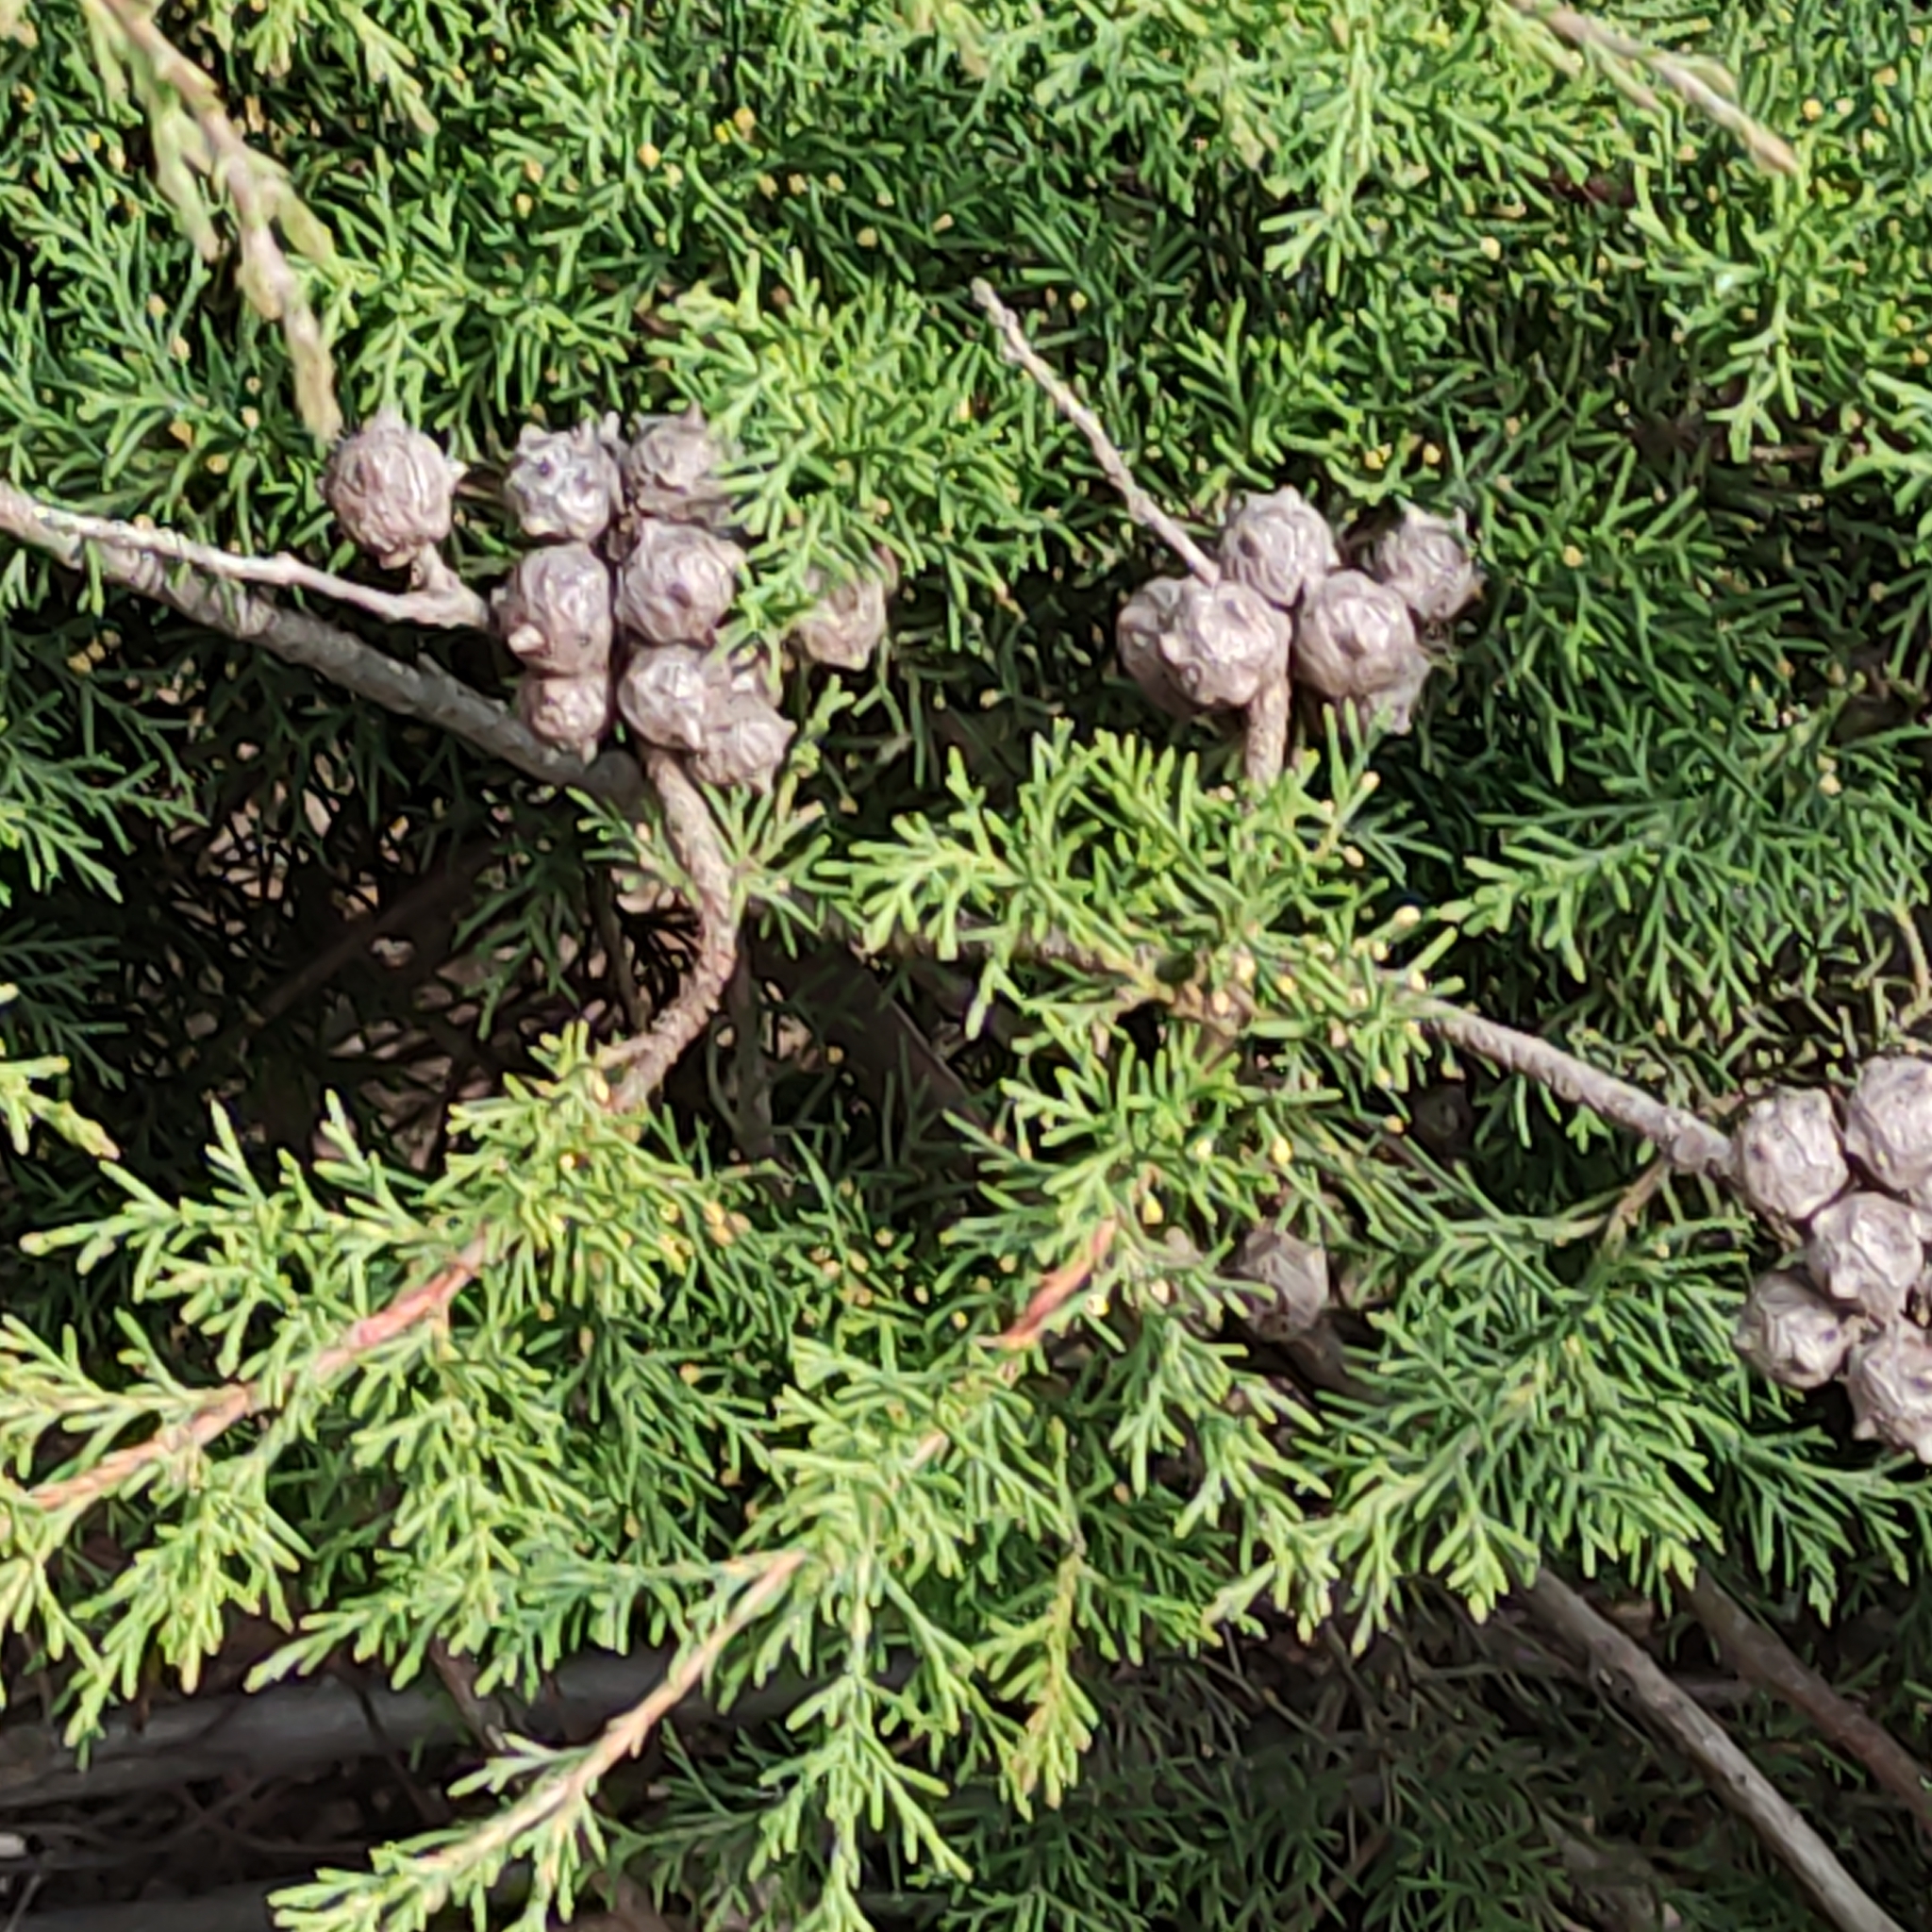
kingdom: Plantae
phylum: Tracheophyta
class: Pinopsida
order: Pinales
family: Cupressaceae
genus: Cupressus
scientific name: Cupressus macrocarpa
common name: Monterey cypress
